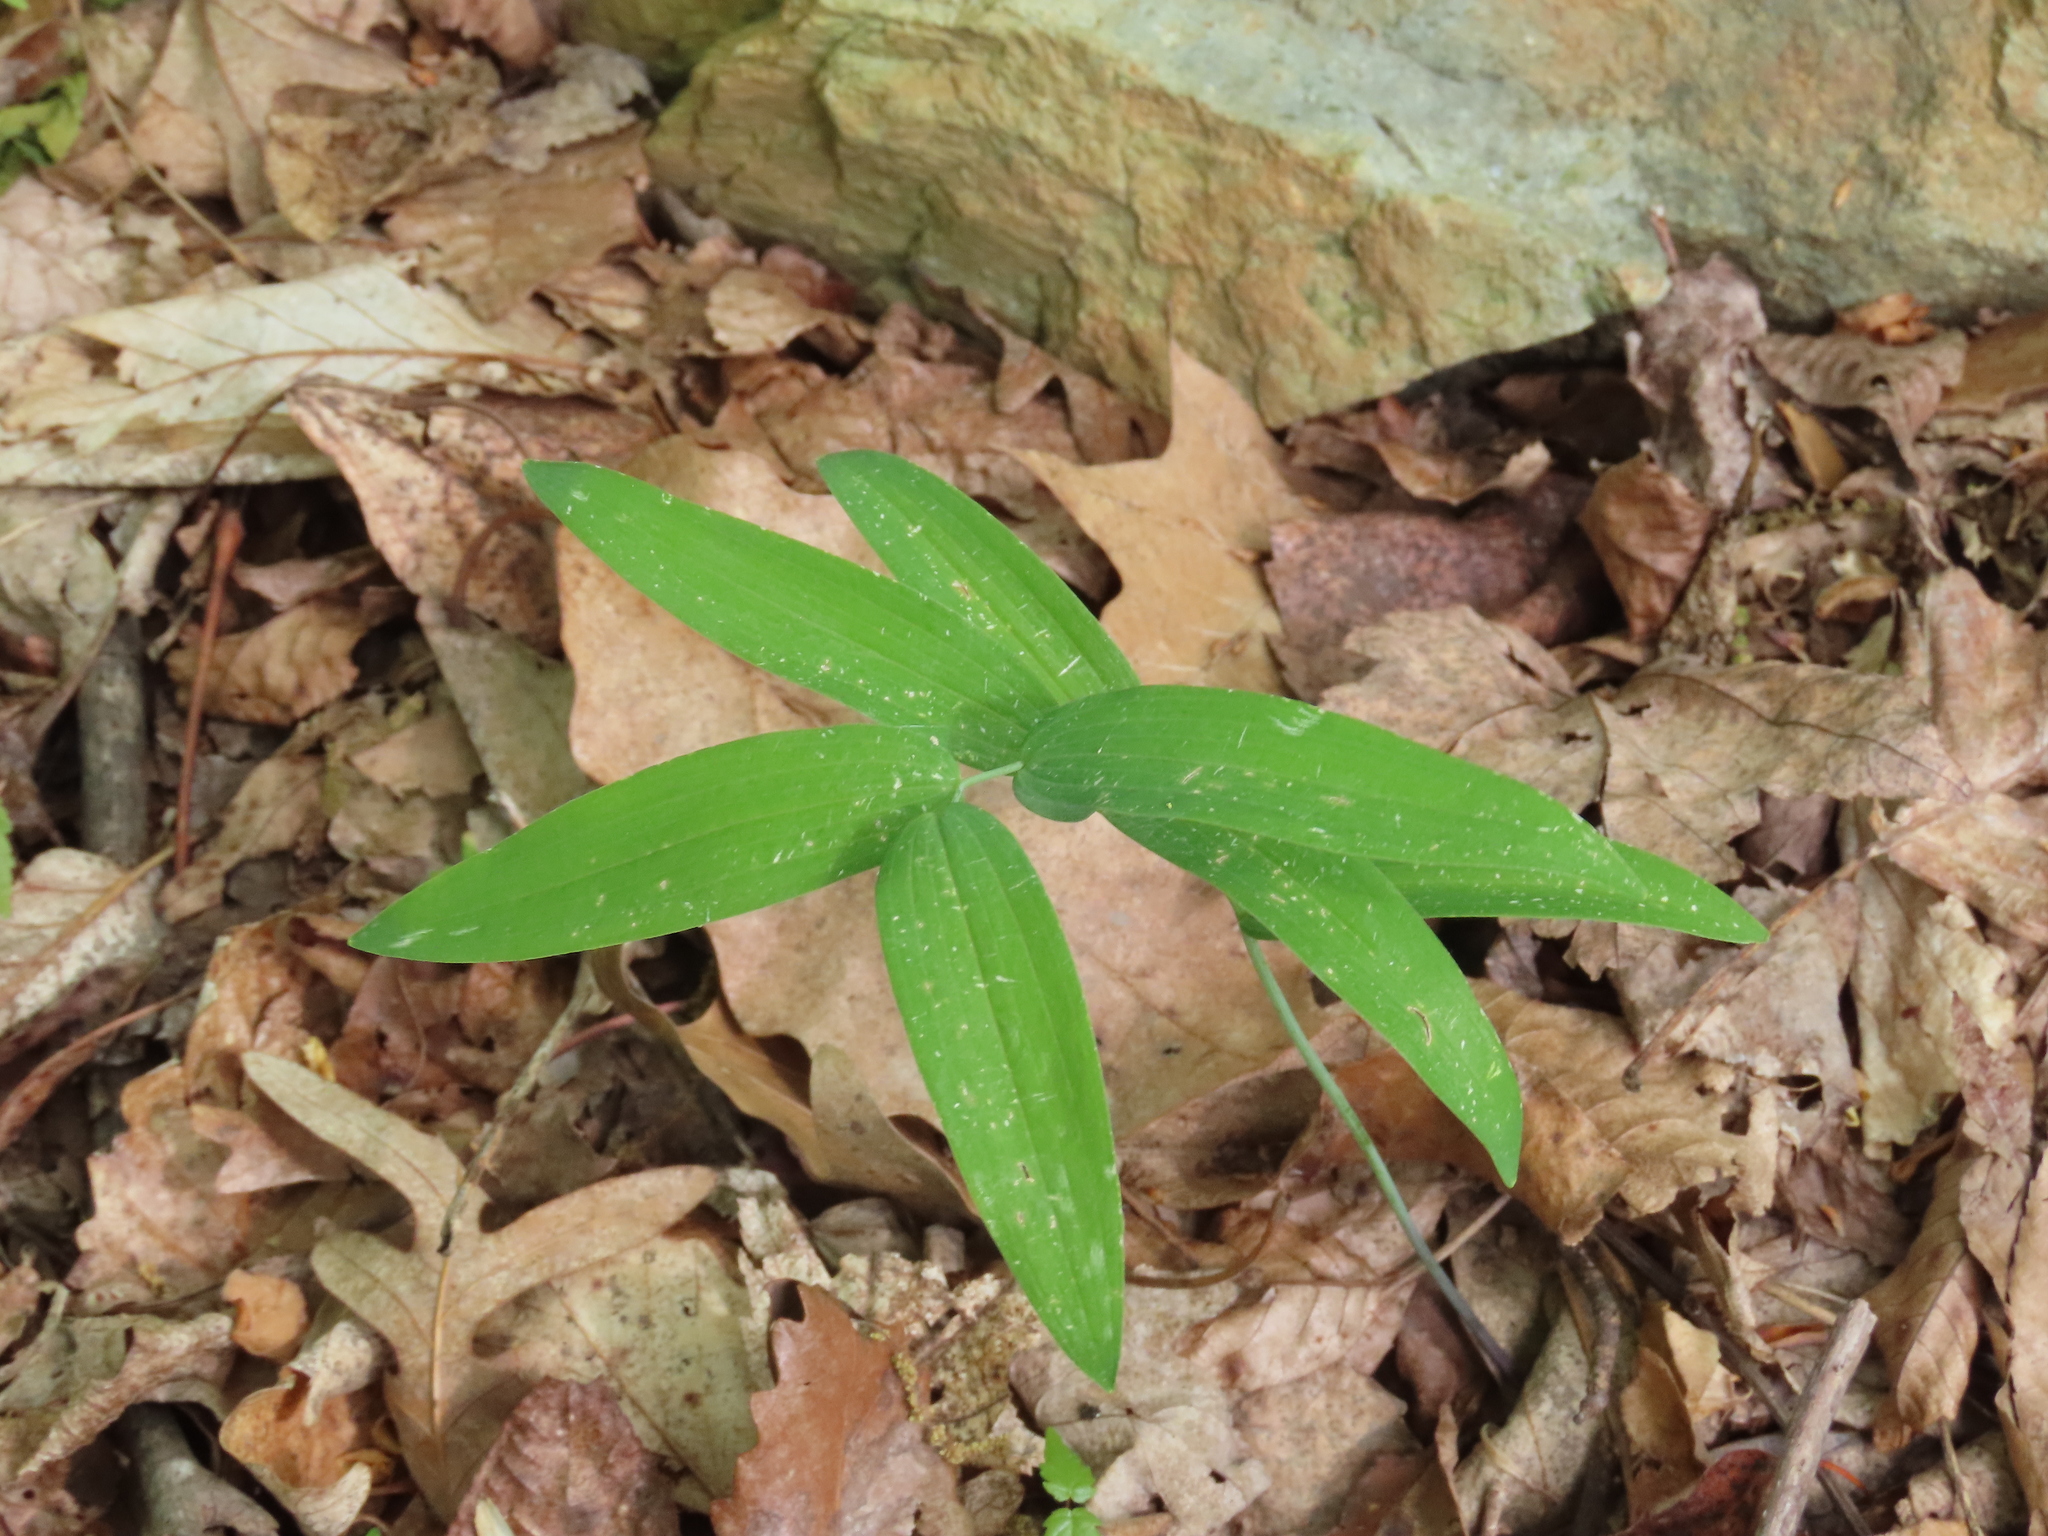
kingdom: Plantae
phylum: Tracheophyta
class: Liliopsida
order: Asparagales
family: Asparagaceae
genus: Polygonatum
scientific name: Polygonatum biflorum
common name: American solomon's-seal
